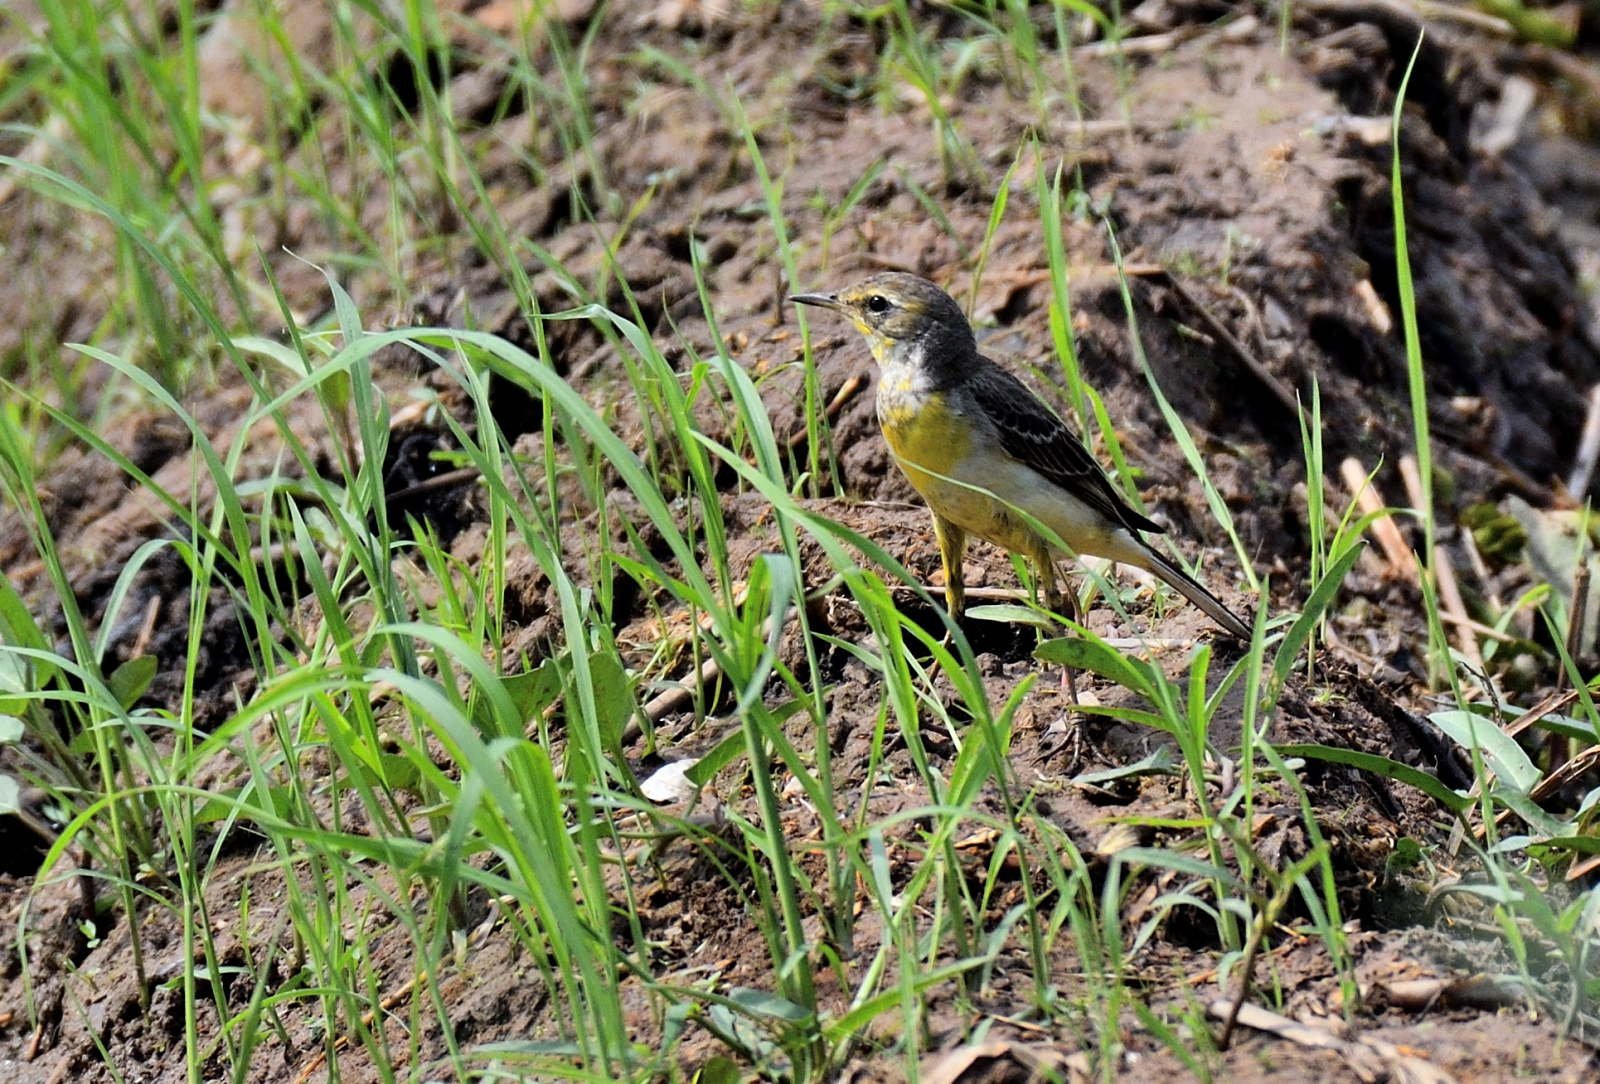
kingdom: Animalia
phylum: Chordata
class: Aves
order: Passeriformes
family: Motacillidae
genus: Motacilla
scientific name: Motacilla flava
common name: Western yellow wagtail
